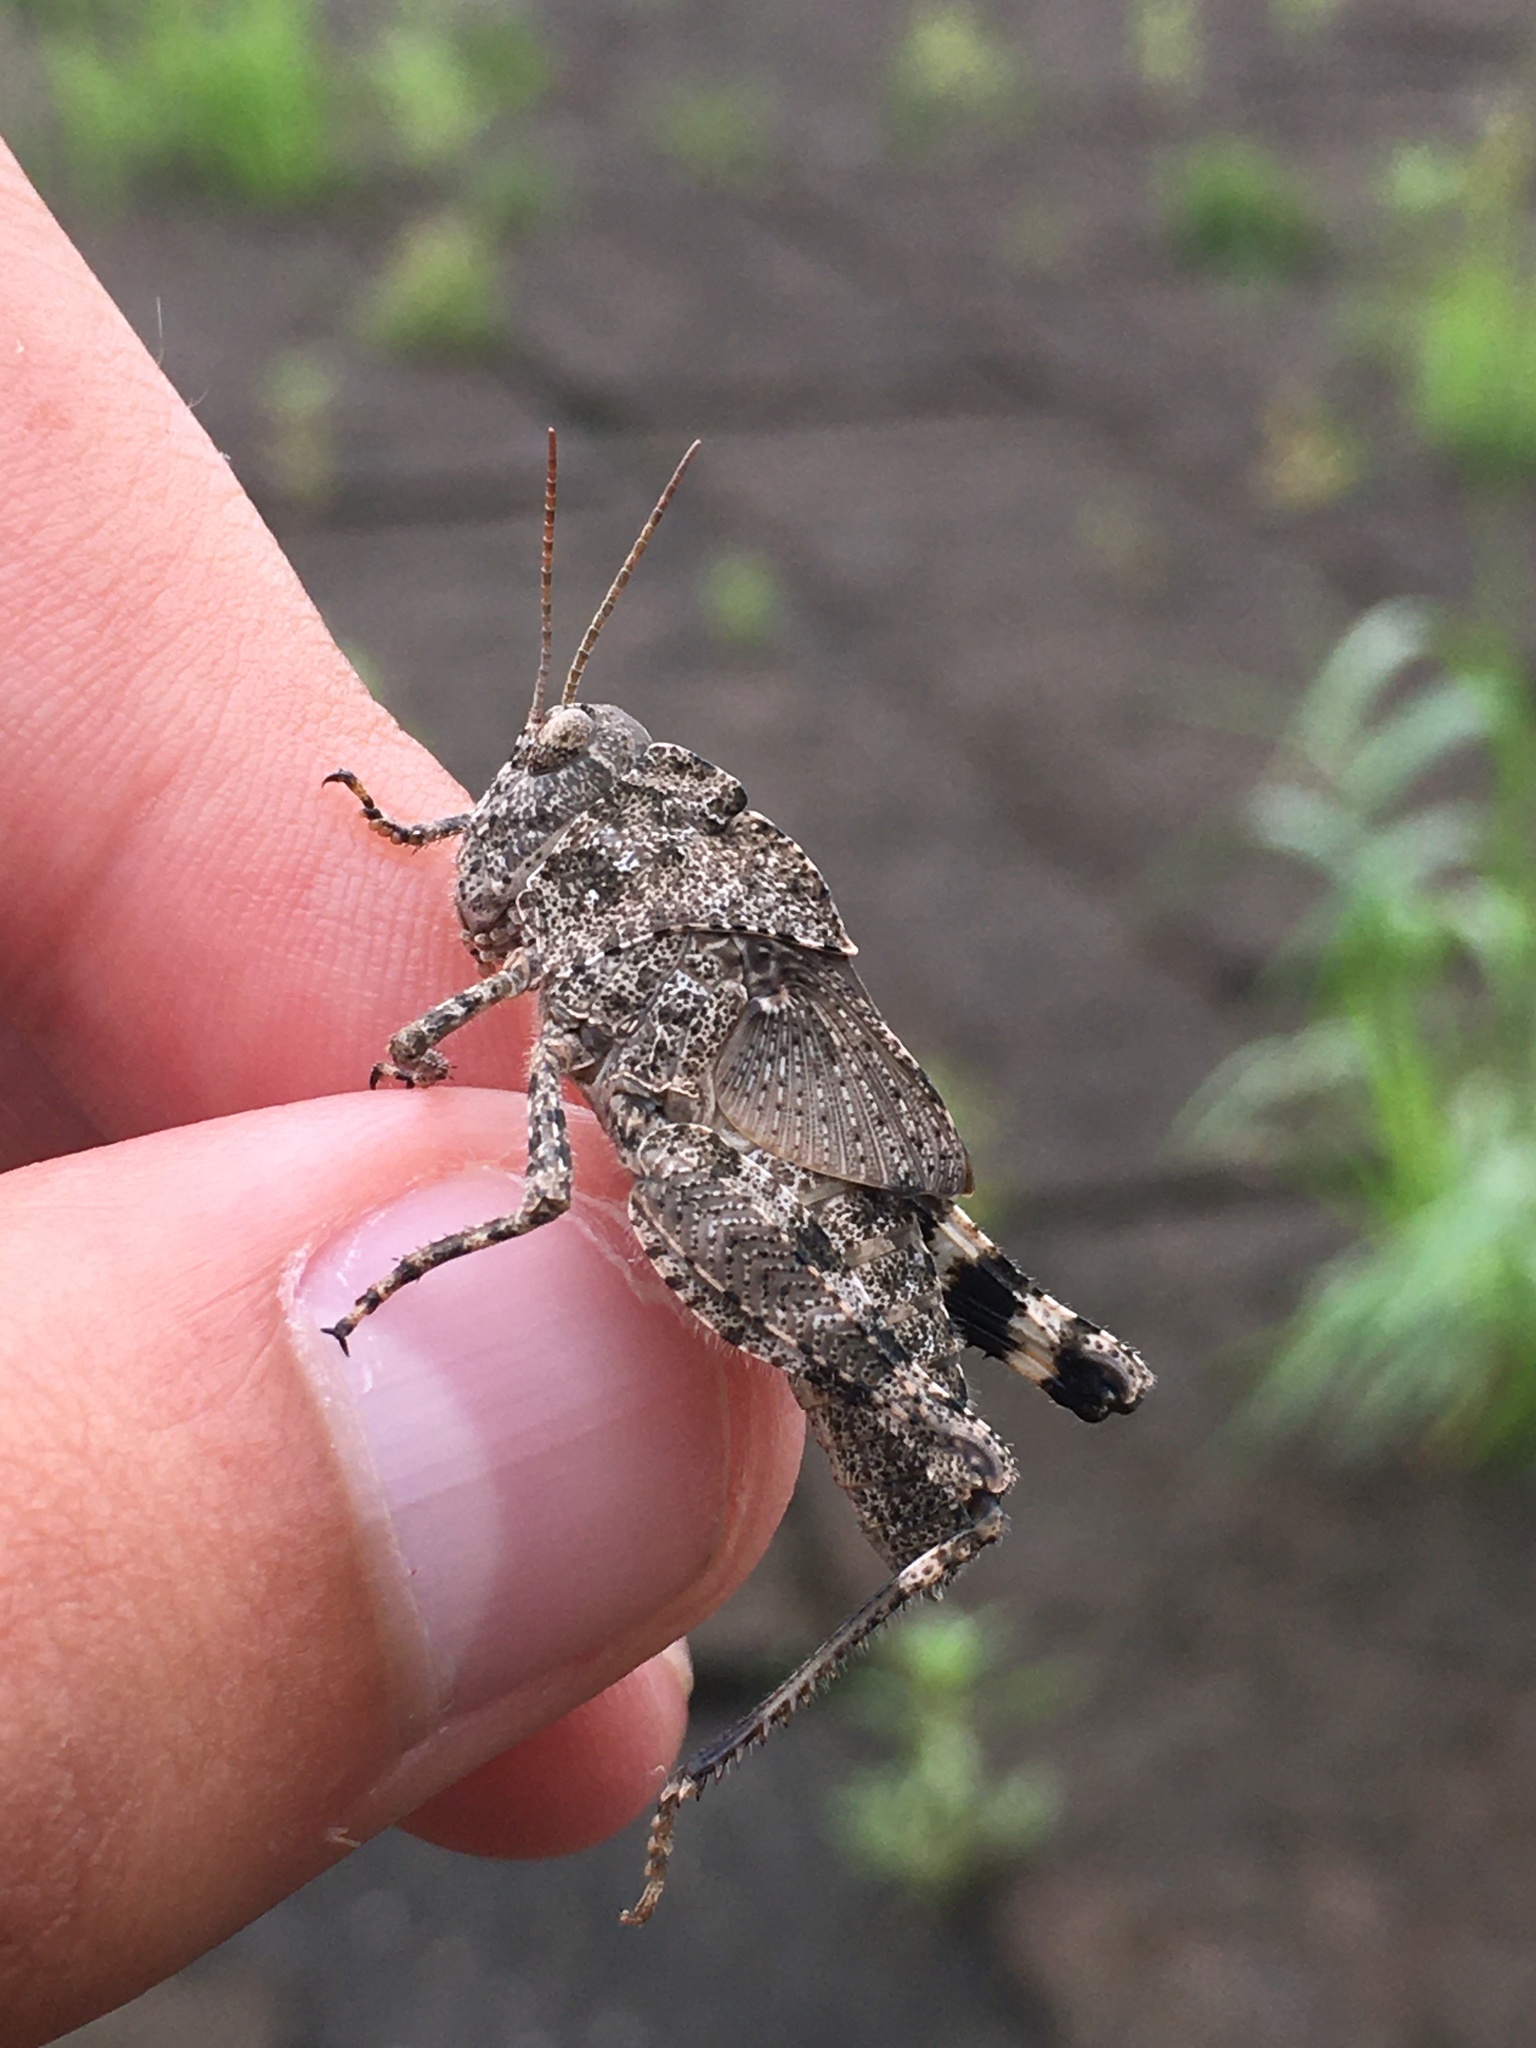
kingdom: Animalia
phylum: Arthropoda
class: Insecta
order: Orthoptera
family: Acrididae
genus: Dissosteira
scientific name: Dissosteira carolina
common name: Carolina grasshopper
